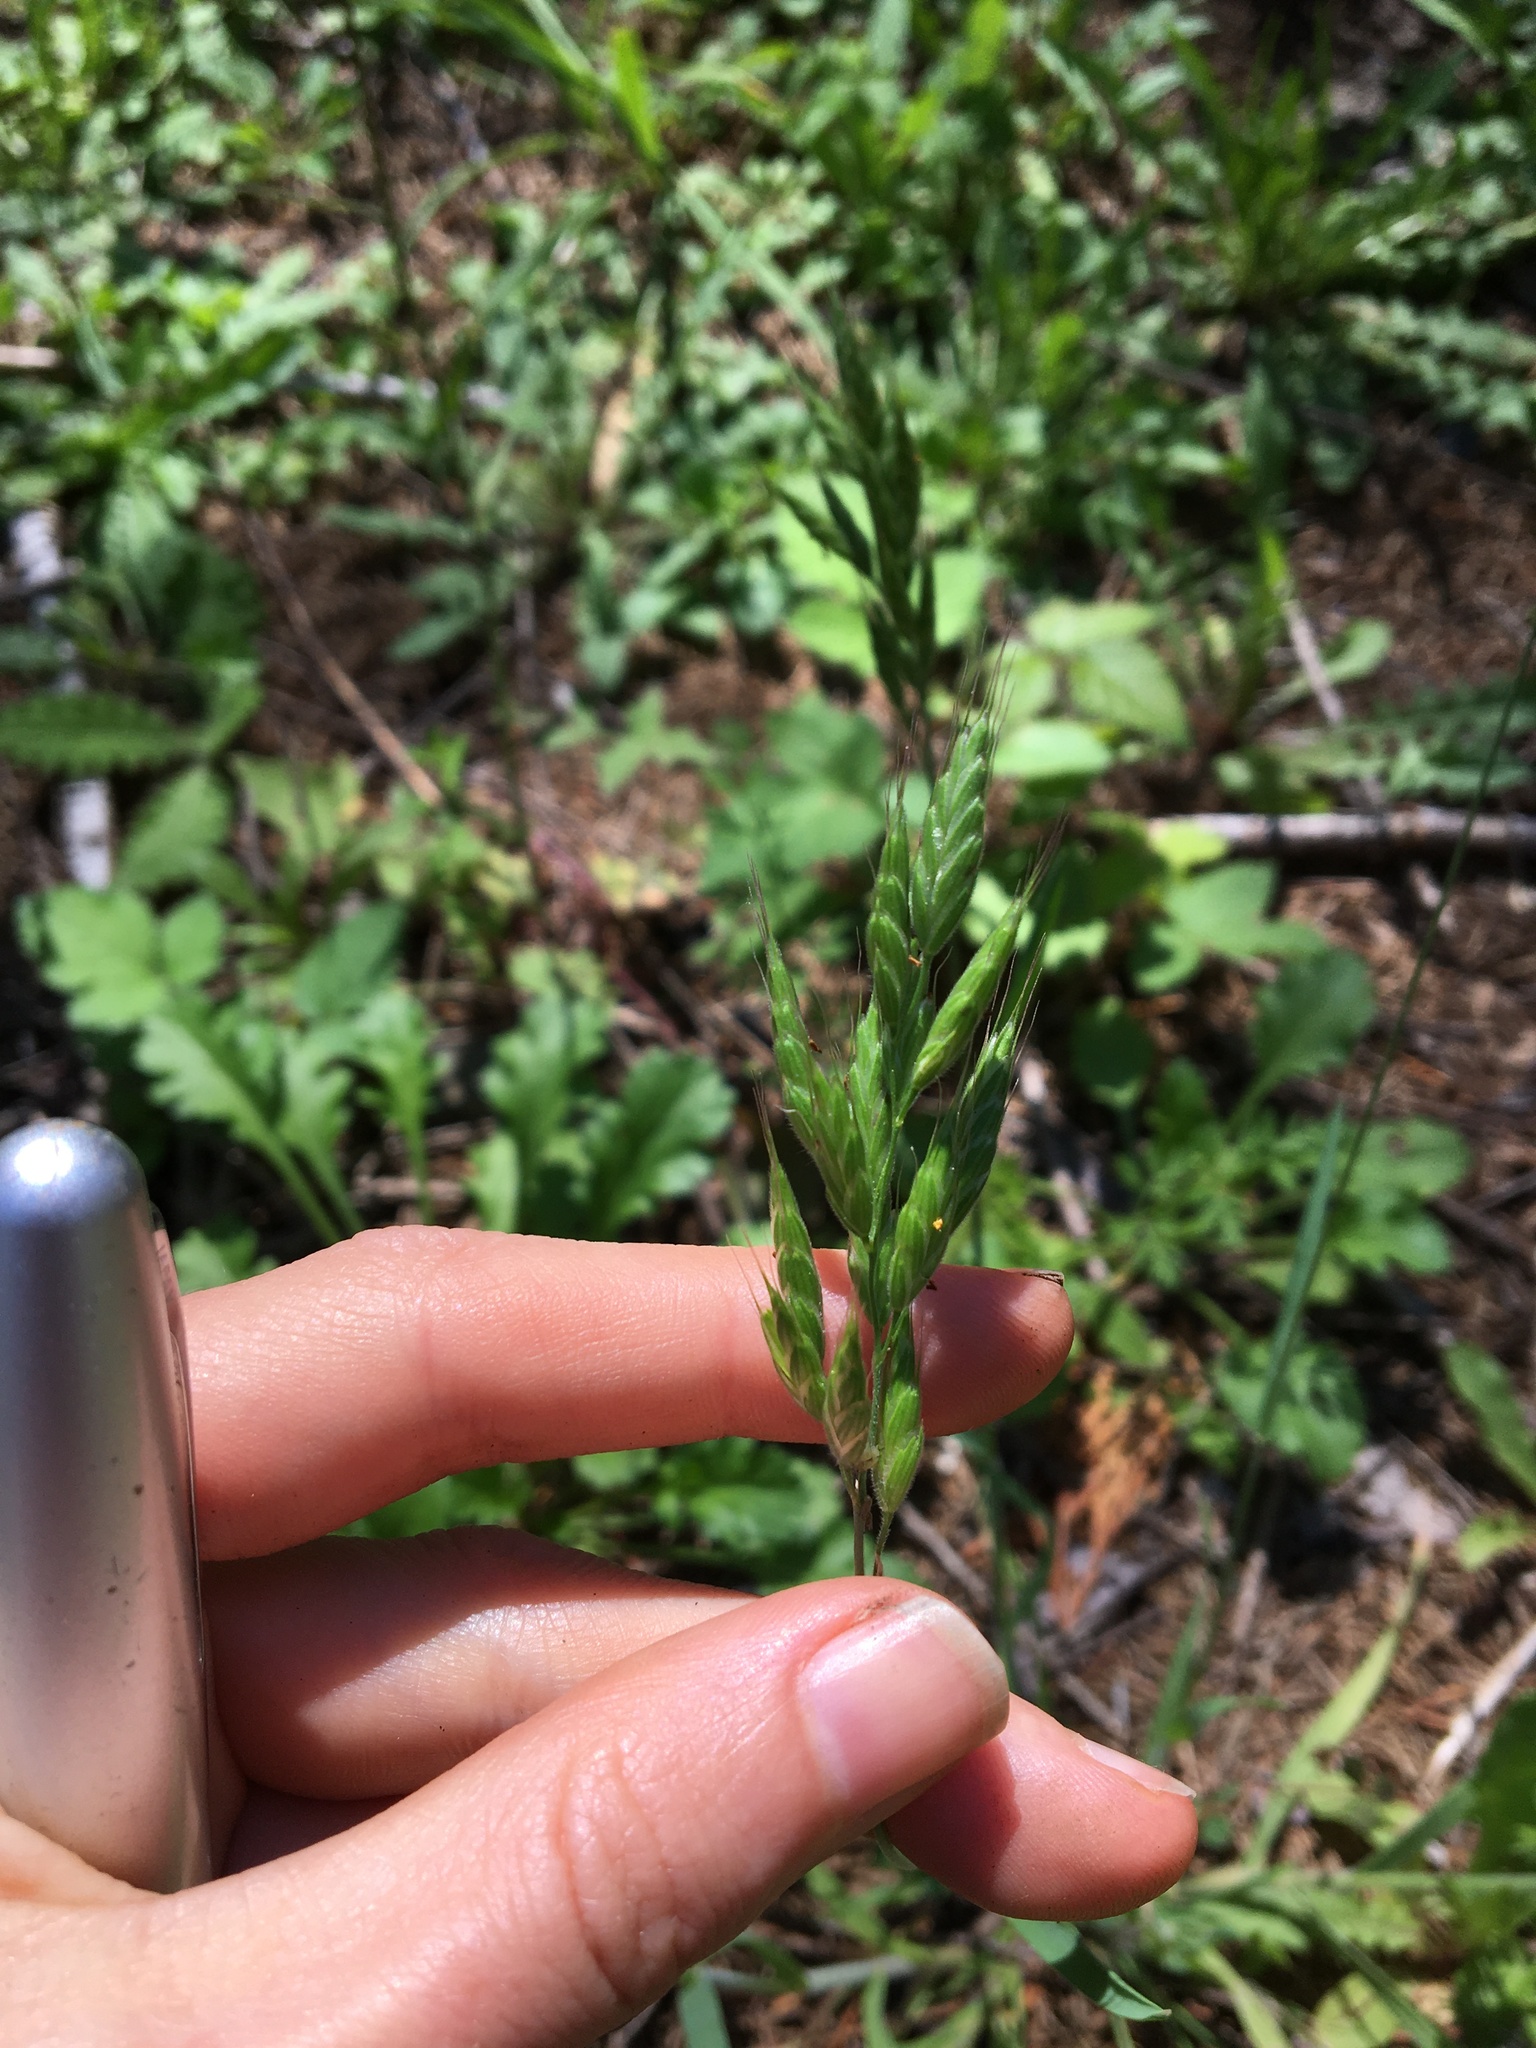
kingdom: Plantae
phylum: Tracheophyta
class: Liliopsida
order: Poales
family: Poaceae
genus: Bromus
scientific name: Bromus hordeaceus
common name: Soft brome
